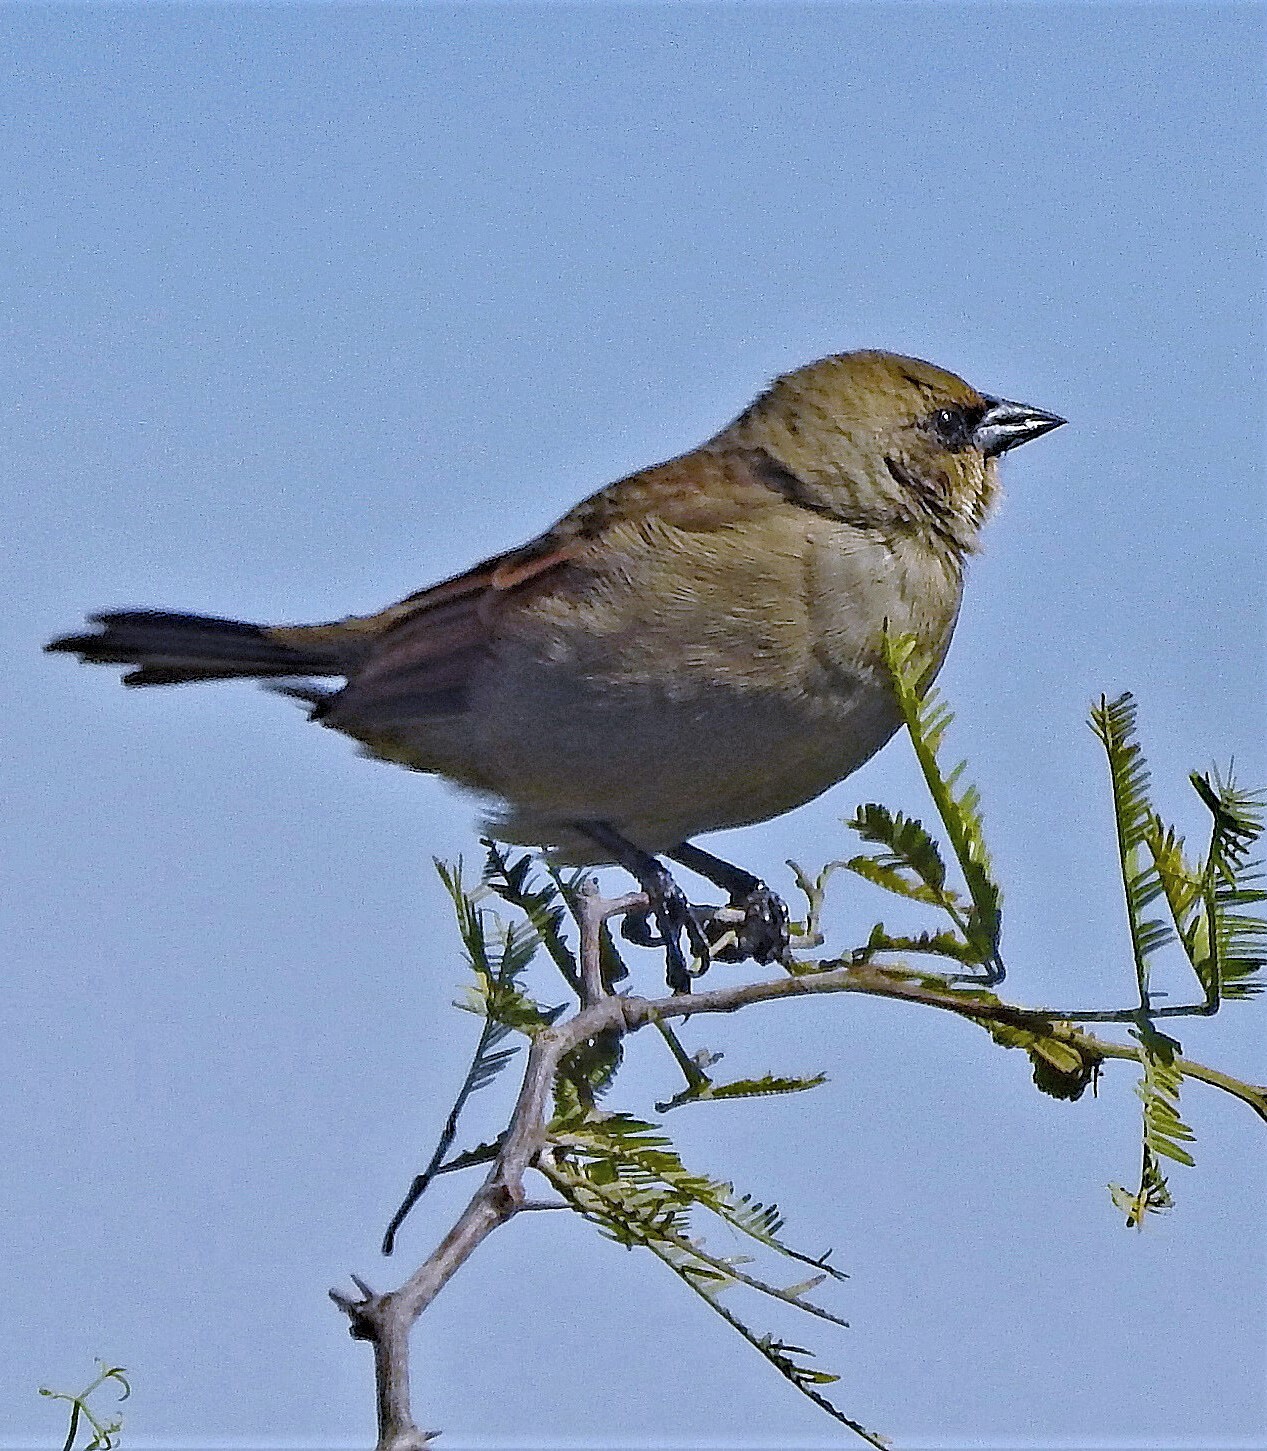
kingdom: Animalia
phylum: Chordata
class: Aves
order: Passeriformes
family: Icteridae
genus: Agelaioides
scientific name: Agelaioides badius
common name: Baywing
